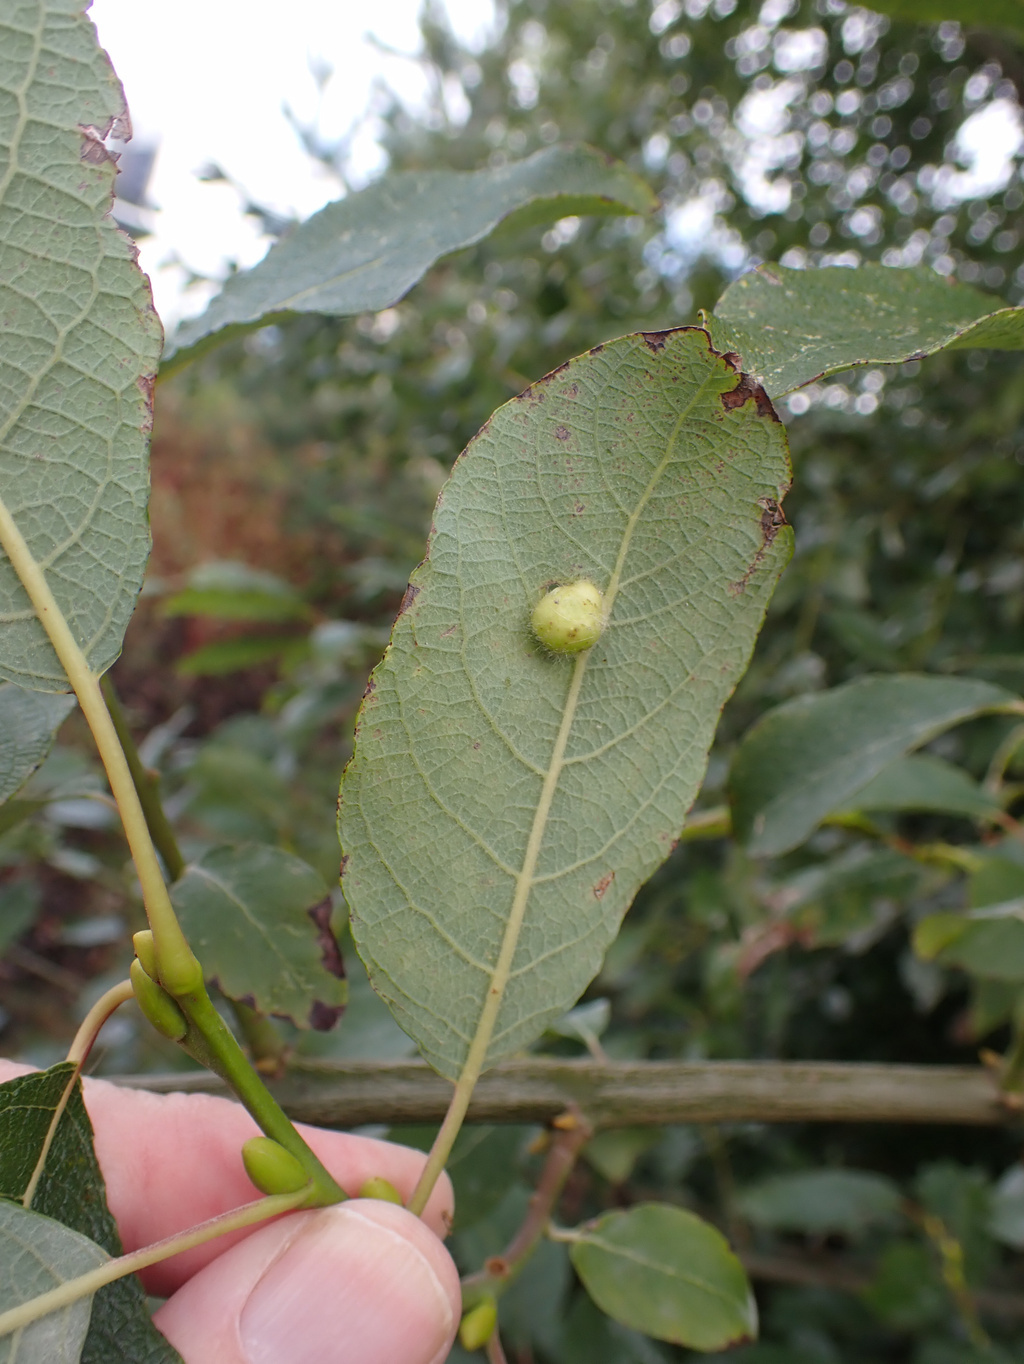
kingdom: Animalia
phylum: Arthropoda
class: Insecta
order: Hymenoptera
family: Tenthredinidae
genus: Pontania
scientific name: Pontania pedunculi
